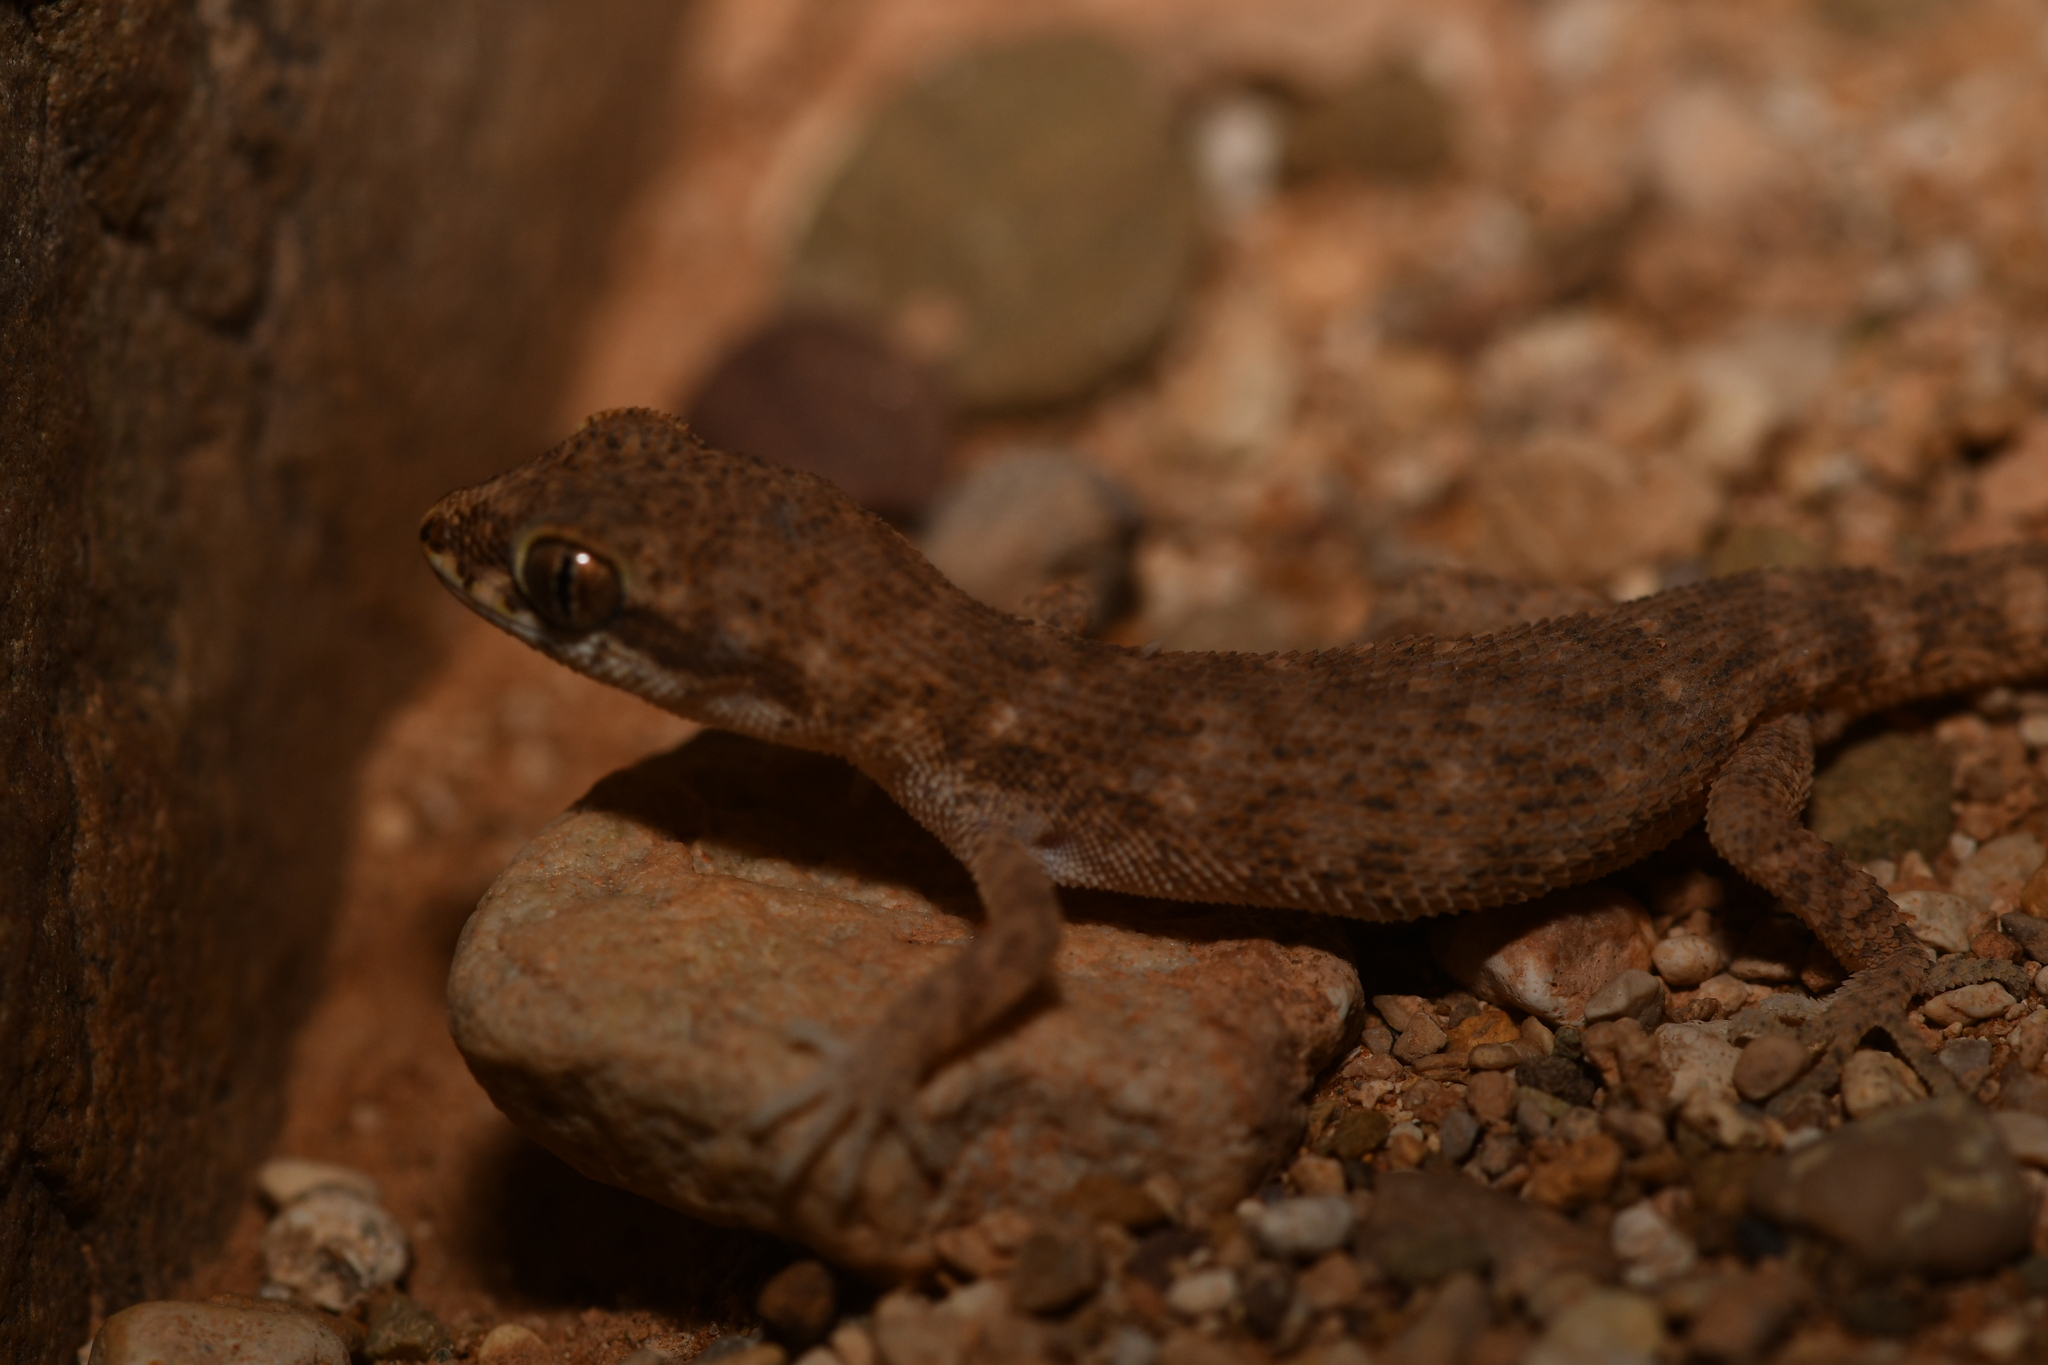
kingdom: Animalia
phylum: Chordata
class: Squamata
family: Gekkonidae
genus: Tropiocolotes
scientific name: Tropiocolotes algericus
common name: Algerian sand gecko
